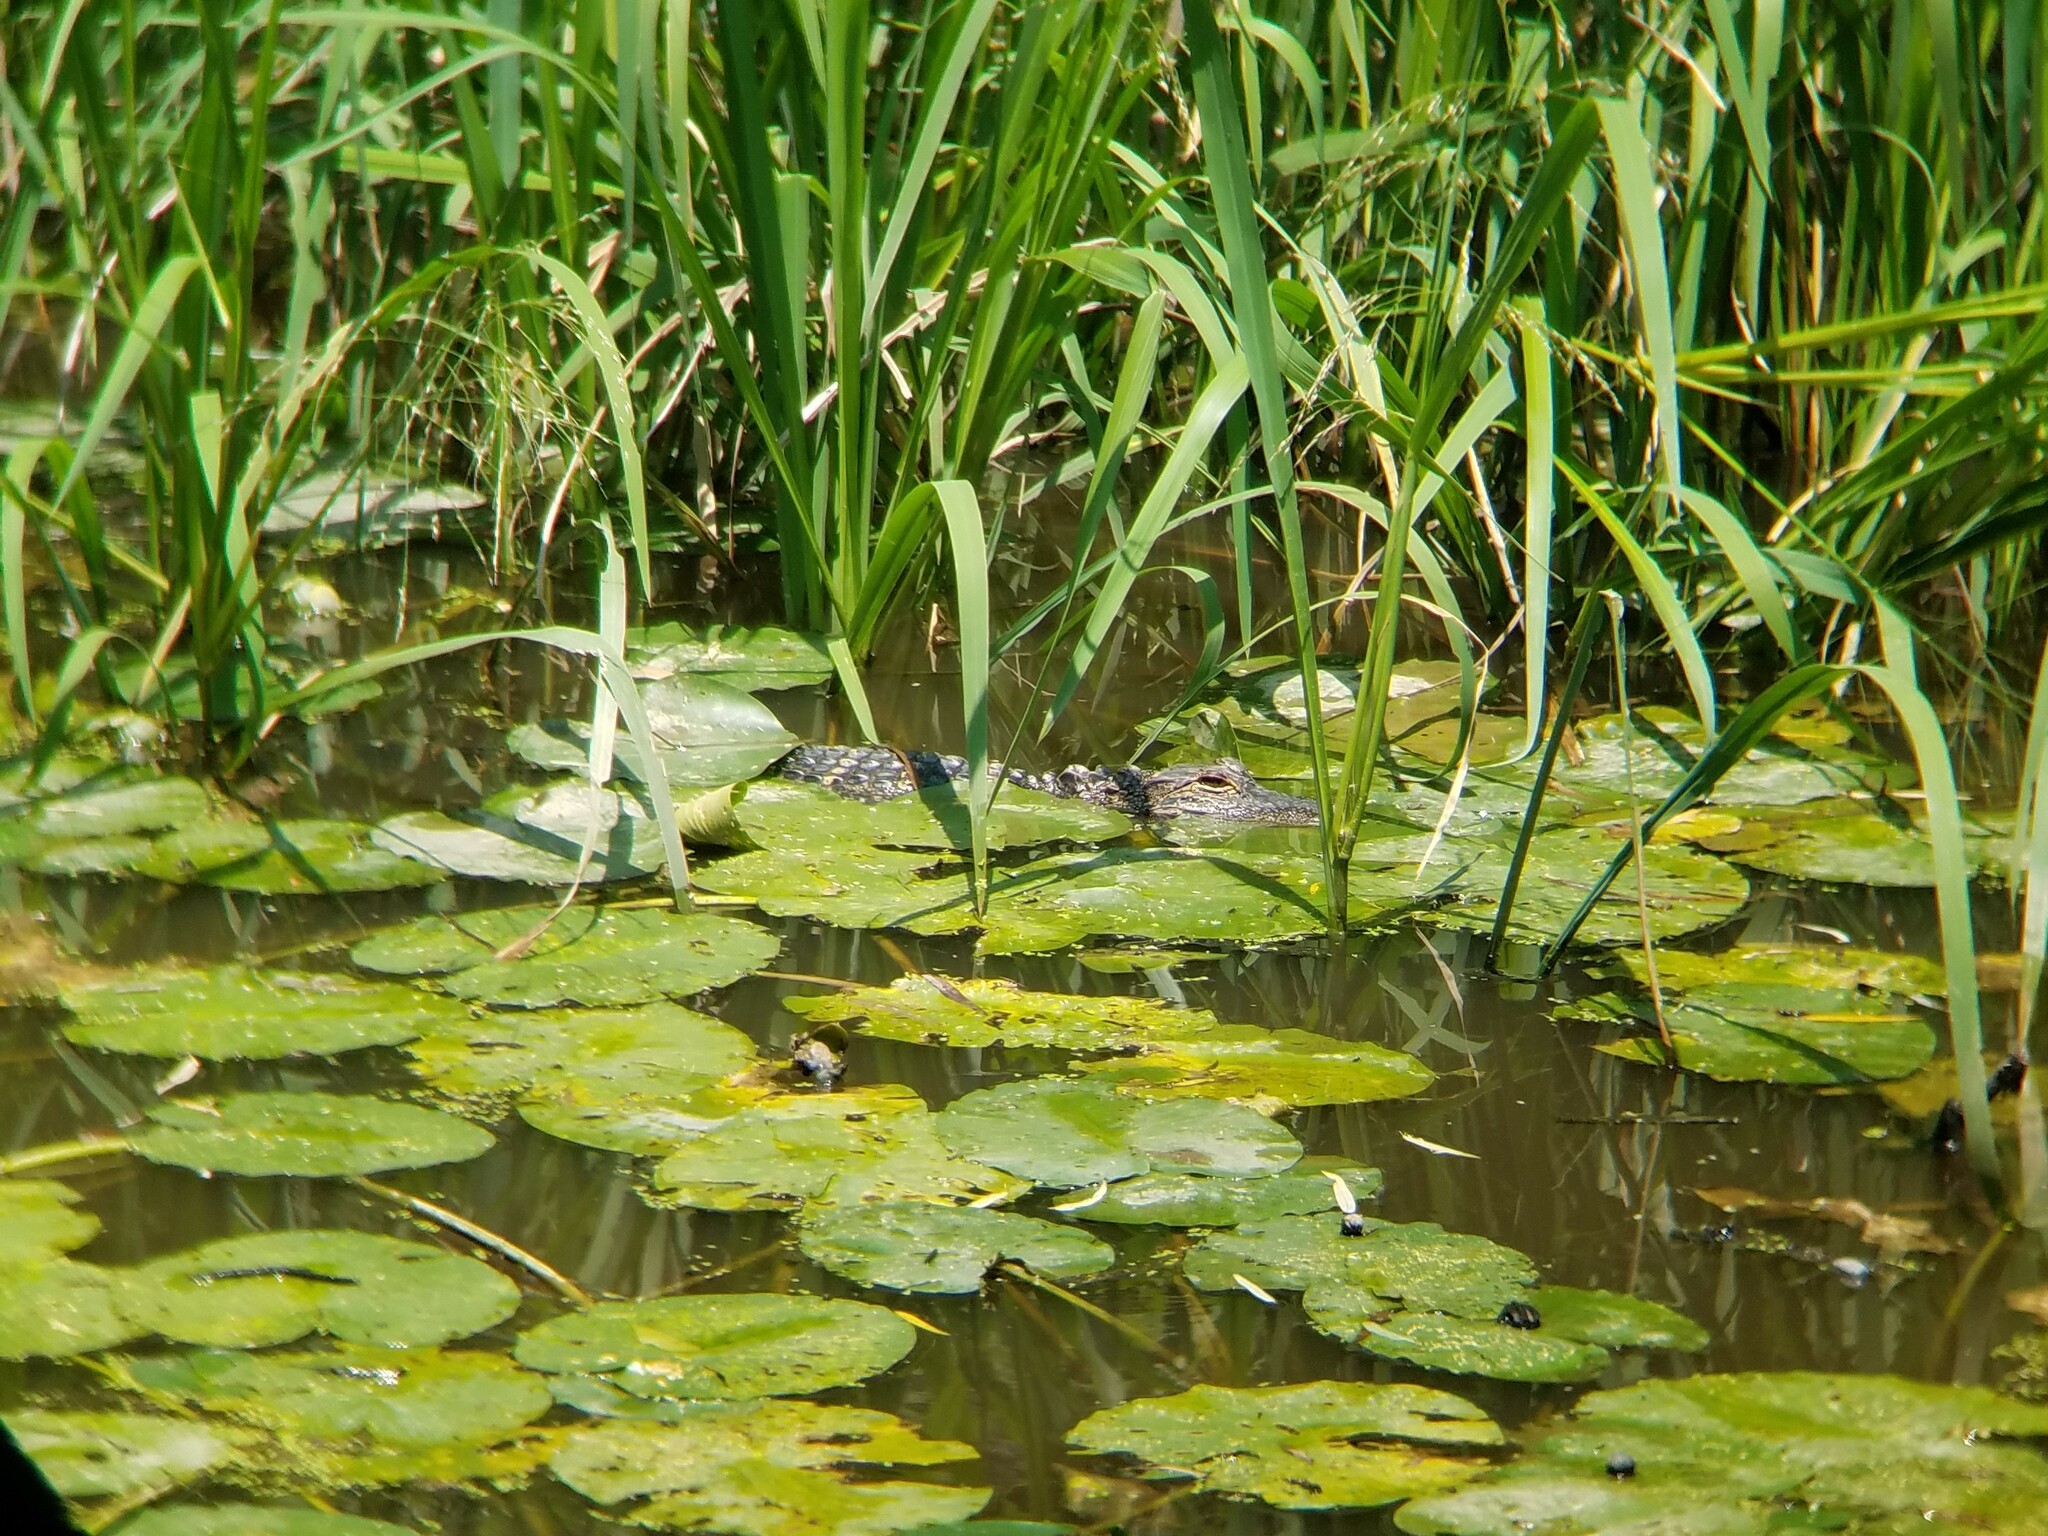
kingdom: Animalia
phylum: Chordata
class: Crocodylia
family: Alligatoridae
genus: Alligator
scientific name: Alligator mississippiensis
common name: American alligator
